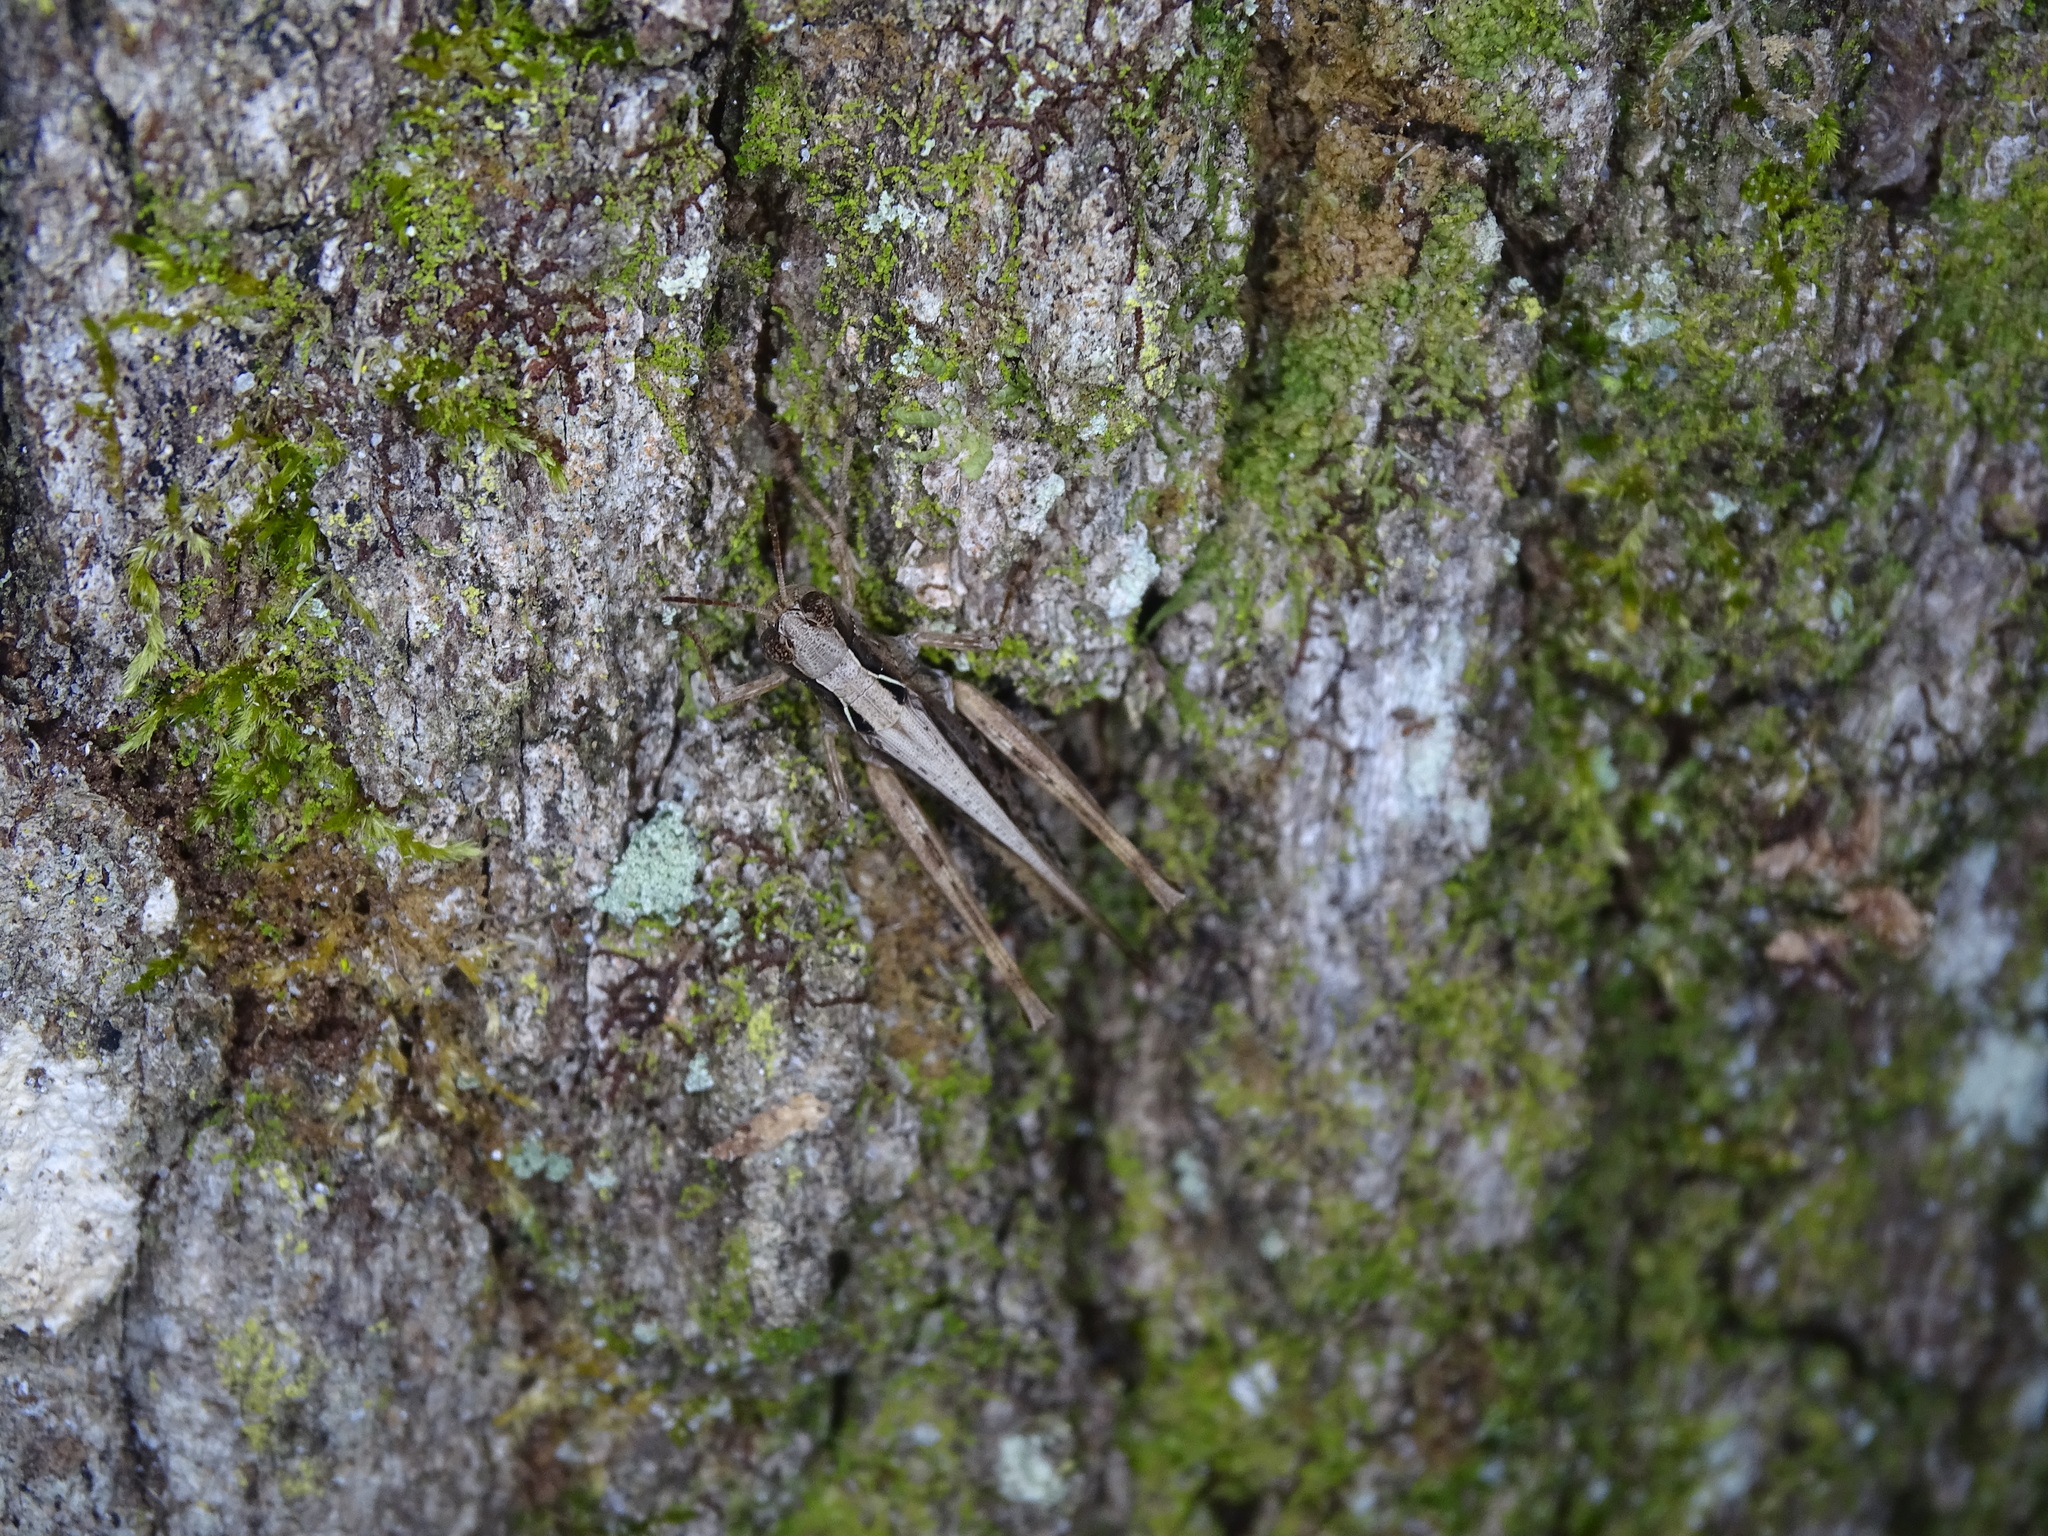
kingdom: Animalia
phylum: Arthropoda
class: Insecta
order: Orthoptera
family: Acrididae
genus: Orphulella
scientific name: Orphulella pelidna
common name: Spotted-wing grasshopper
